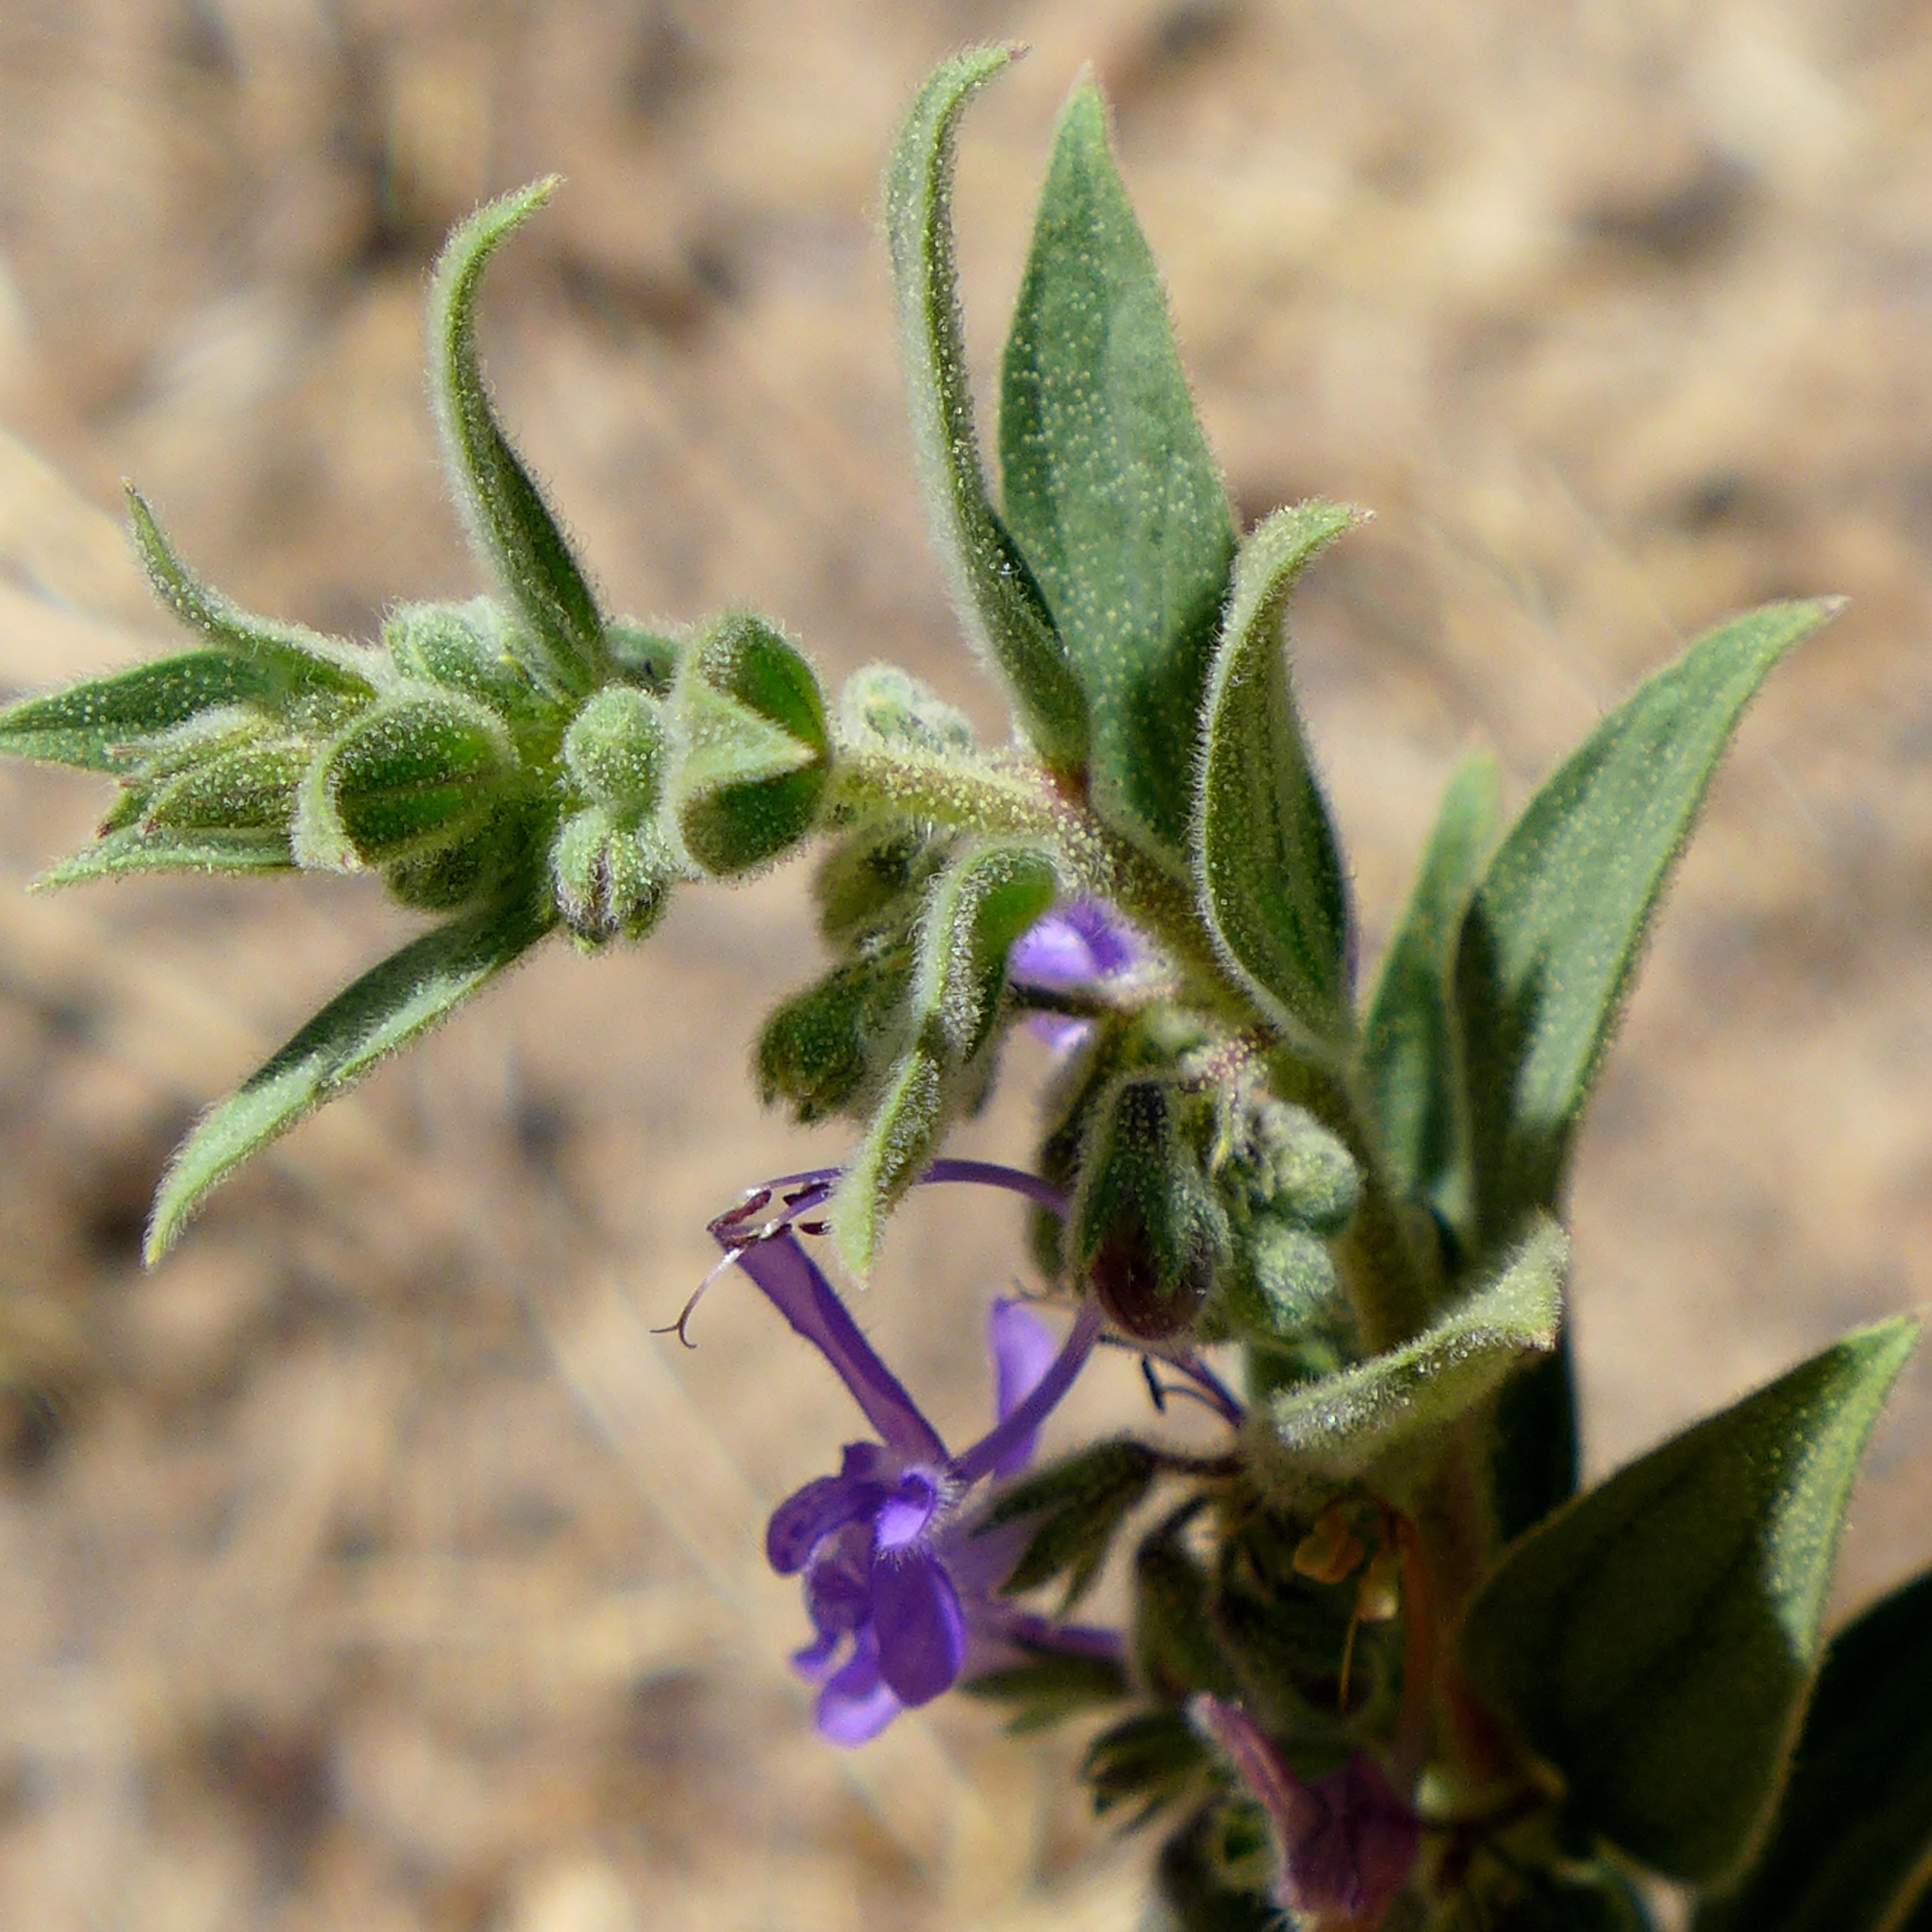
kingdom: Plantae
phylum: Tracheophyta
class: Magnoliopsida
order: Lamiales
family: Lamiaceae
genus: Trichostema
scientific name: Trichostema lanceolatum
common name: Vinegar-weed
